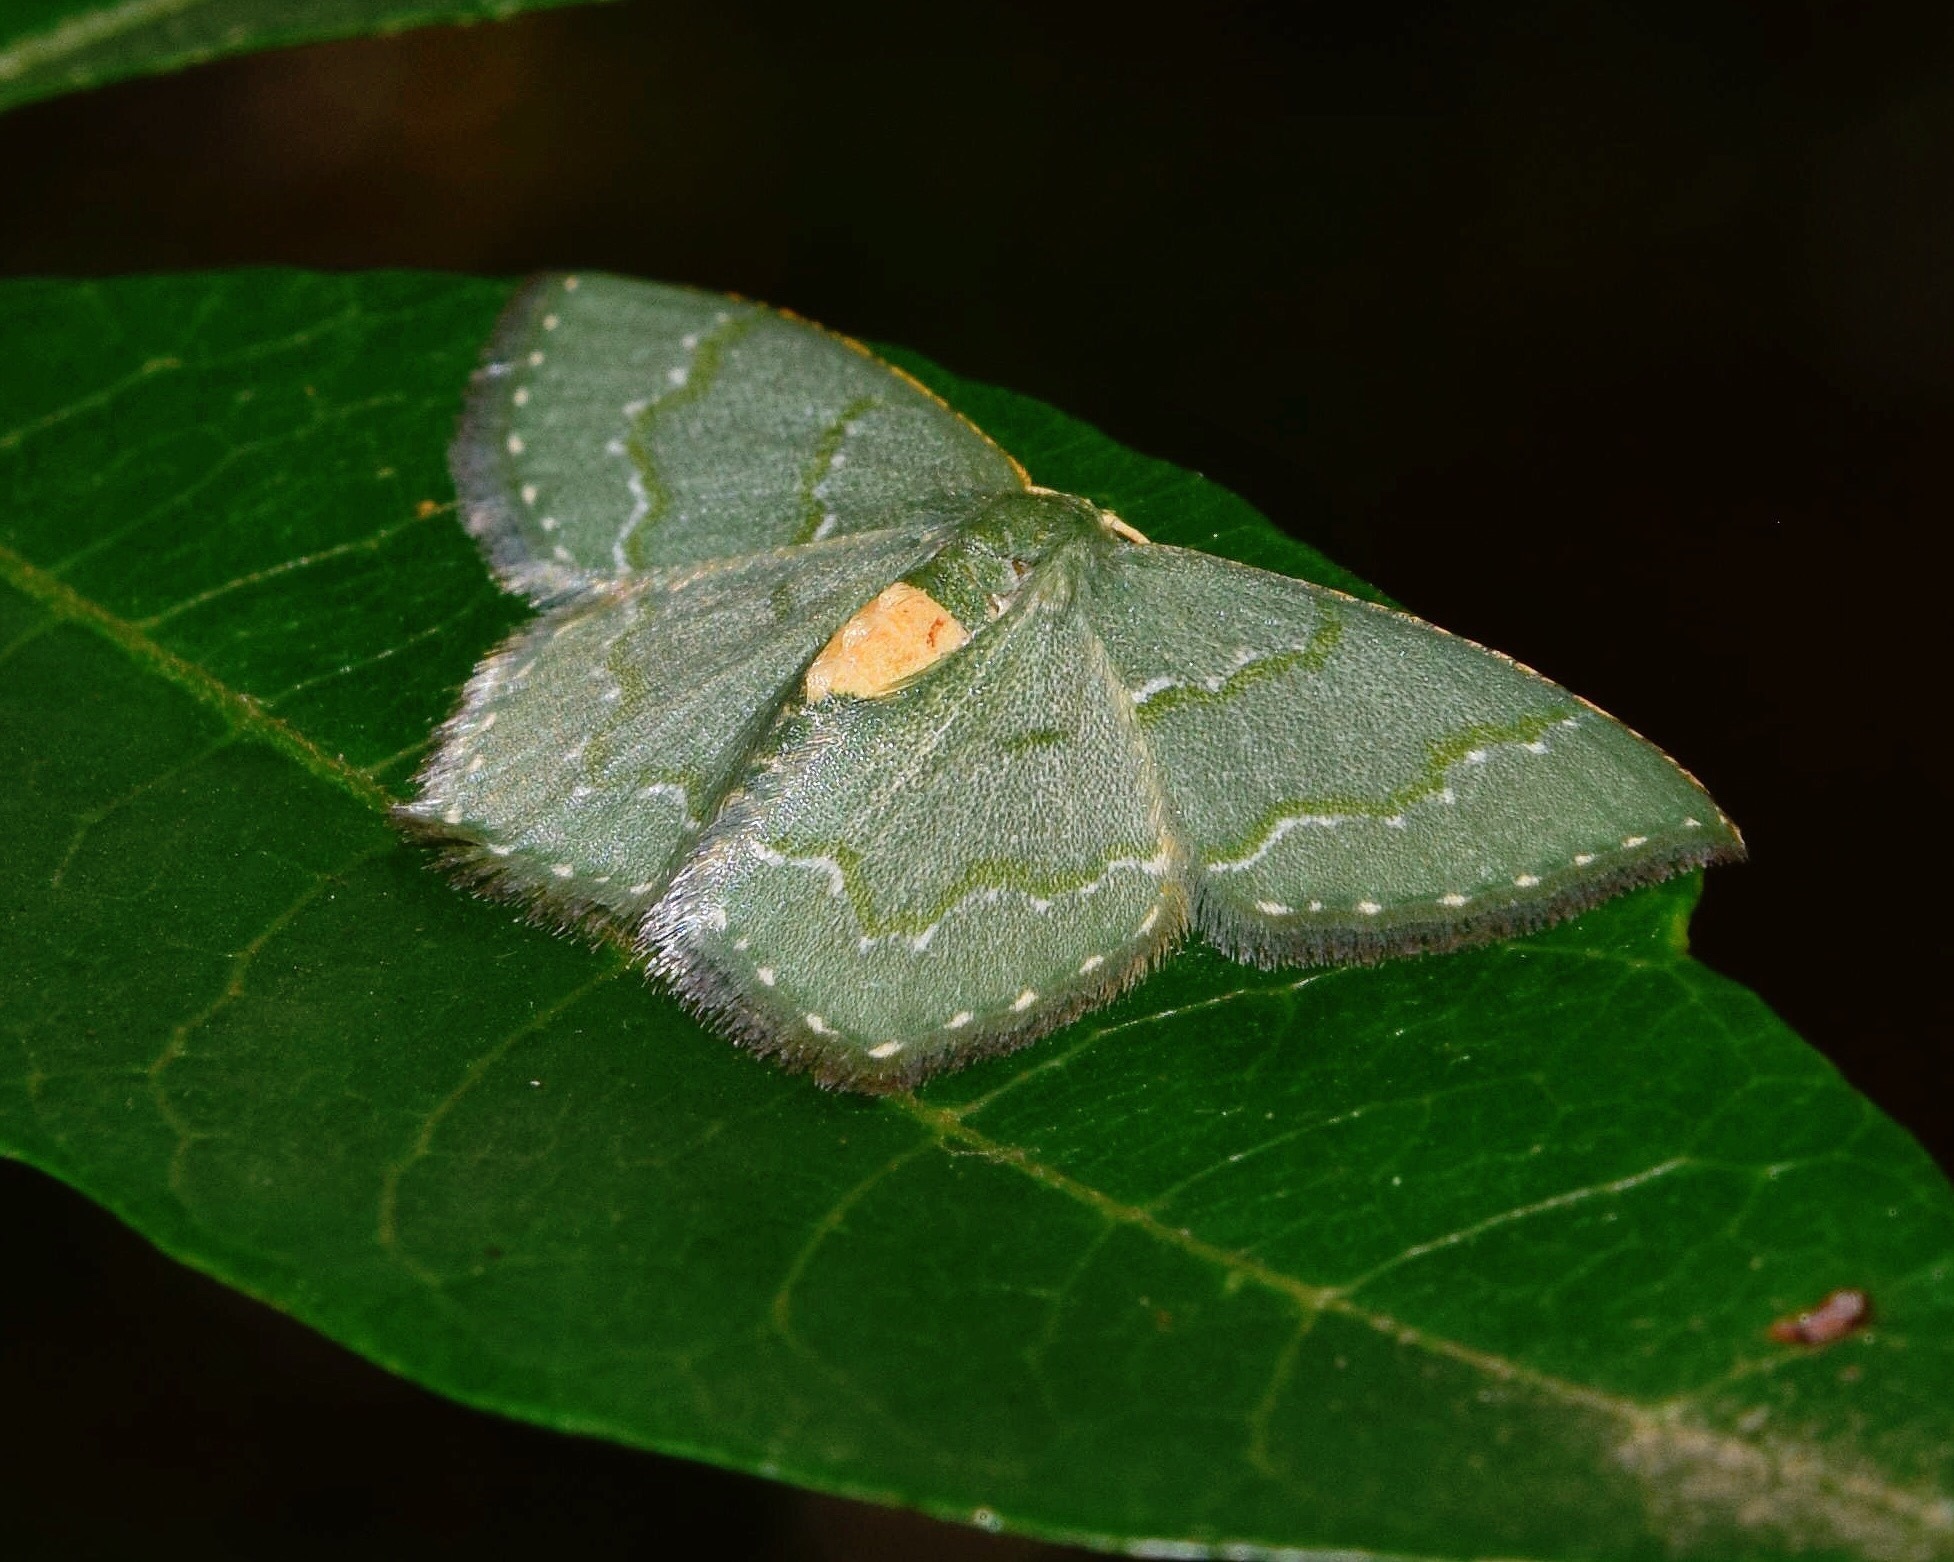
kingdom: Animalia
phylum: Arthropoda
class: Insecta
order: Lepidoptera
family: Geometridae
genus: Metallochlora
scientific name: Metallochlora grisea
